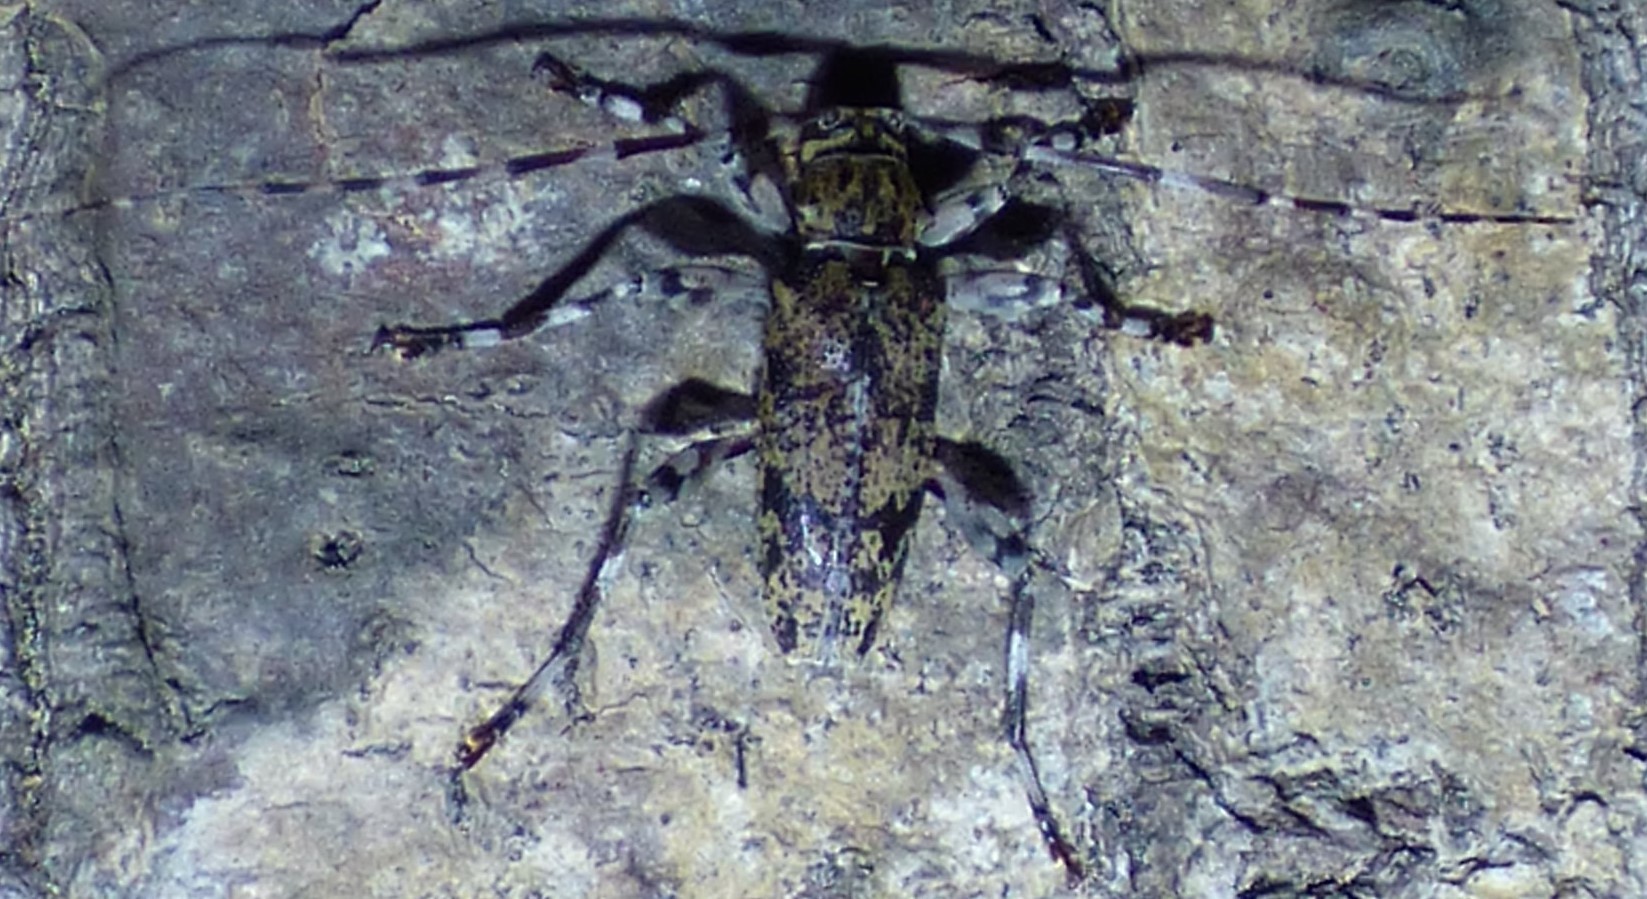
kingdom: Animalia
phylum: Arthropoda
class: Insecta
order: Coleoptera
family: Cerambycidae
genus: Graphisurus
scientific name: Graphisurus fasciatus
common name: Banded graphisurus
